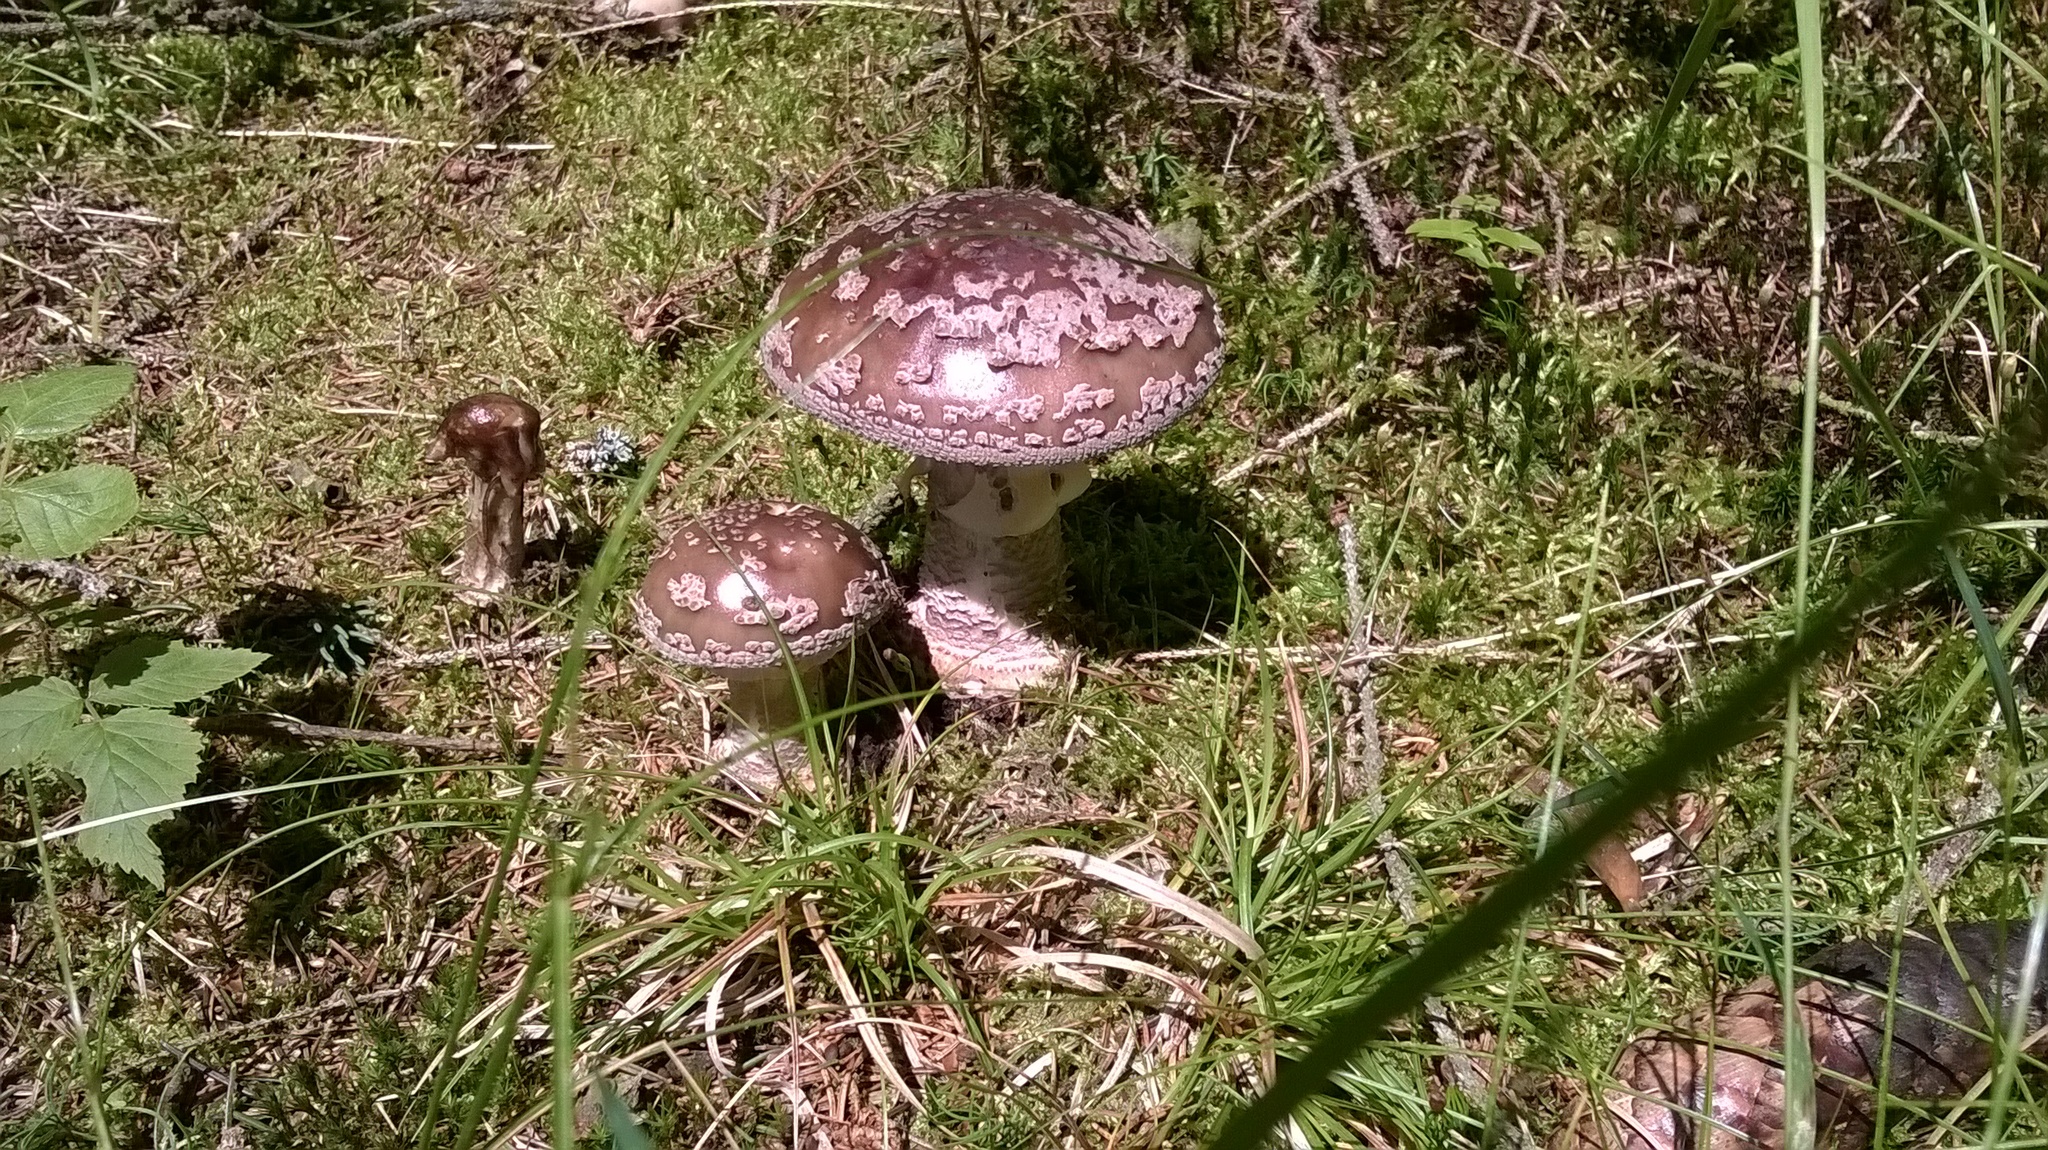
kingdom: Fungi
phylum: Basidiomycota
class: Agaricomycetes
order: Agaricales
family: Amanitaceae
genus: Amanita
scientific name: Amanita excelsa
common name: European false blusher
